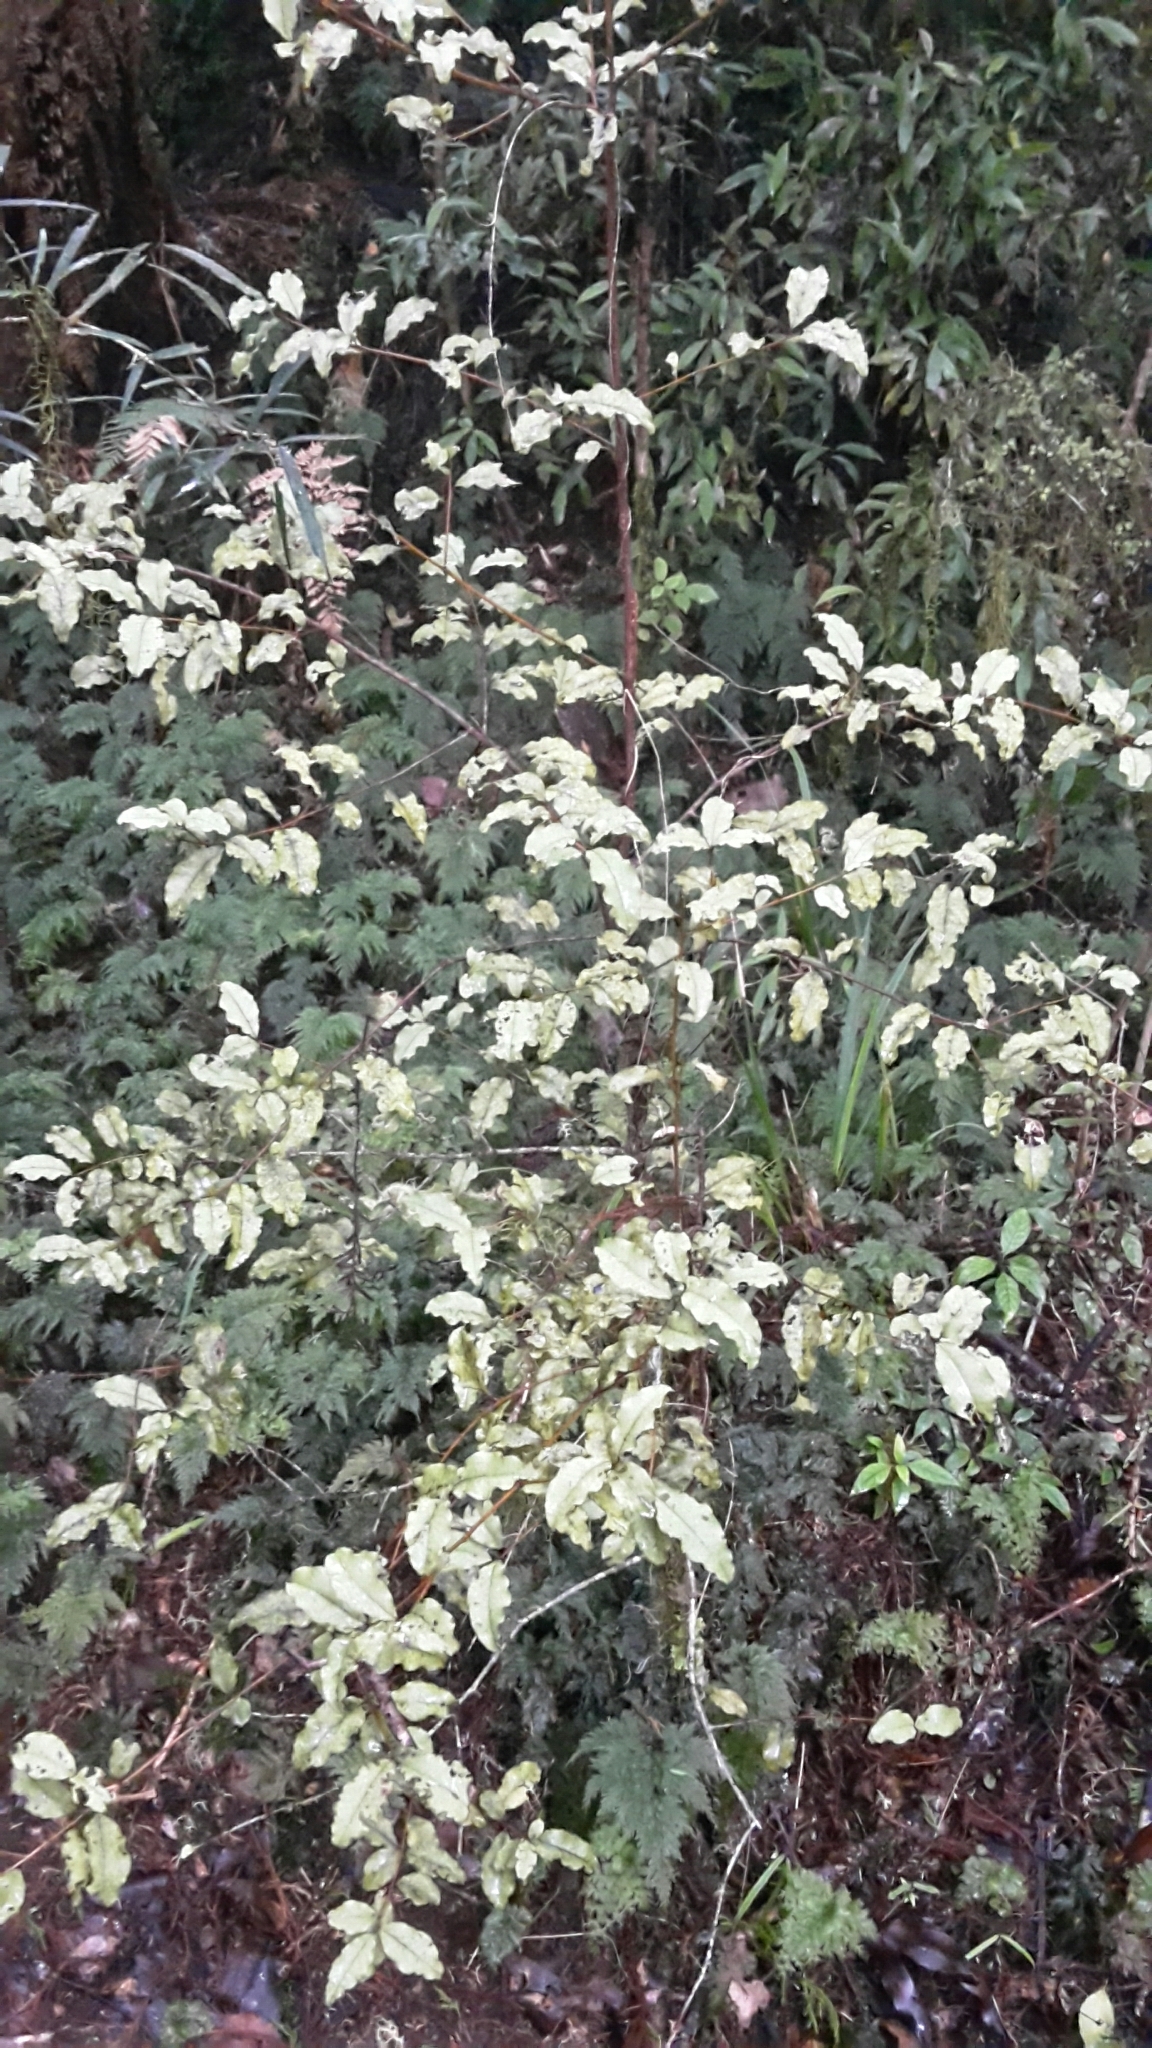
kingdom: Plantae
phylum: Tracheophyta
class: Magnoliopsida
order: Ericales
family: Primulaceae
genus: Myrsine
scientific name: Myrsine australis
